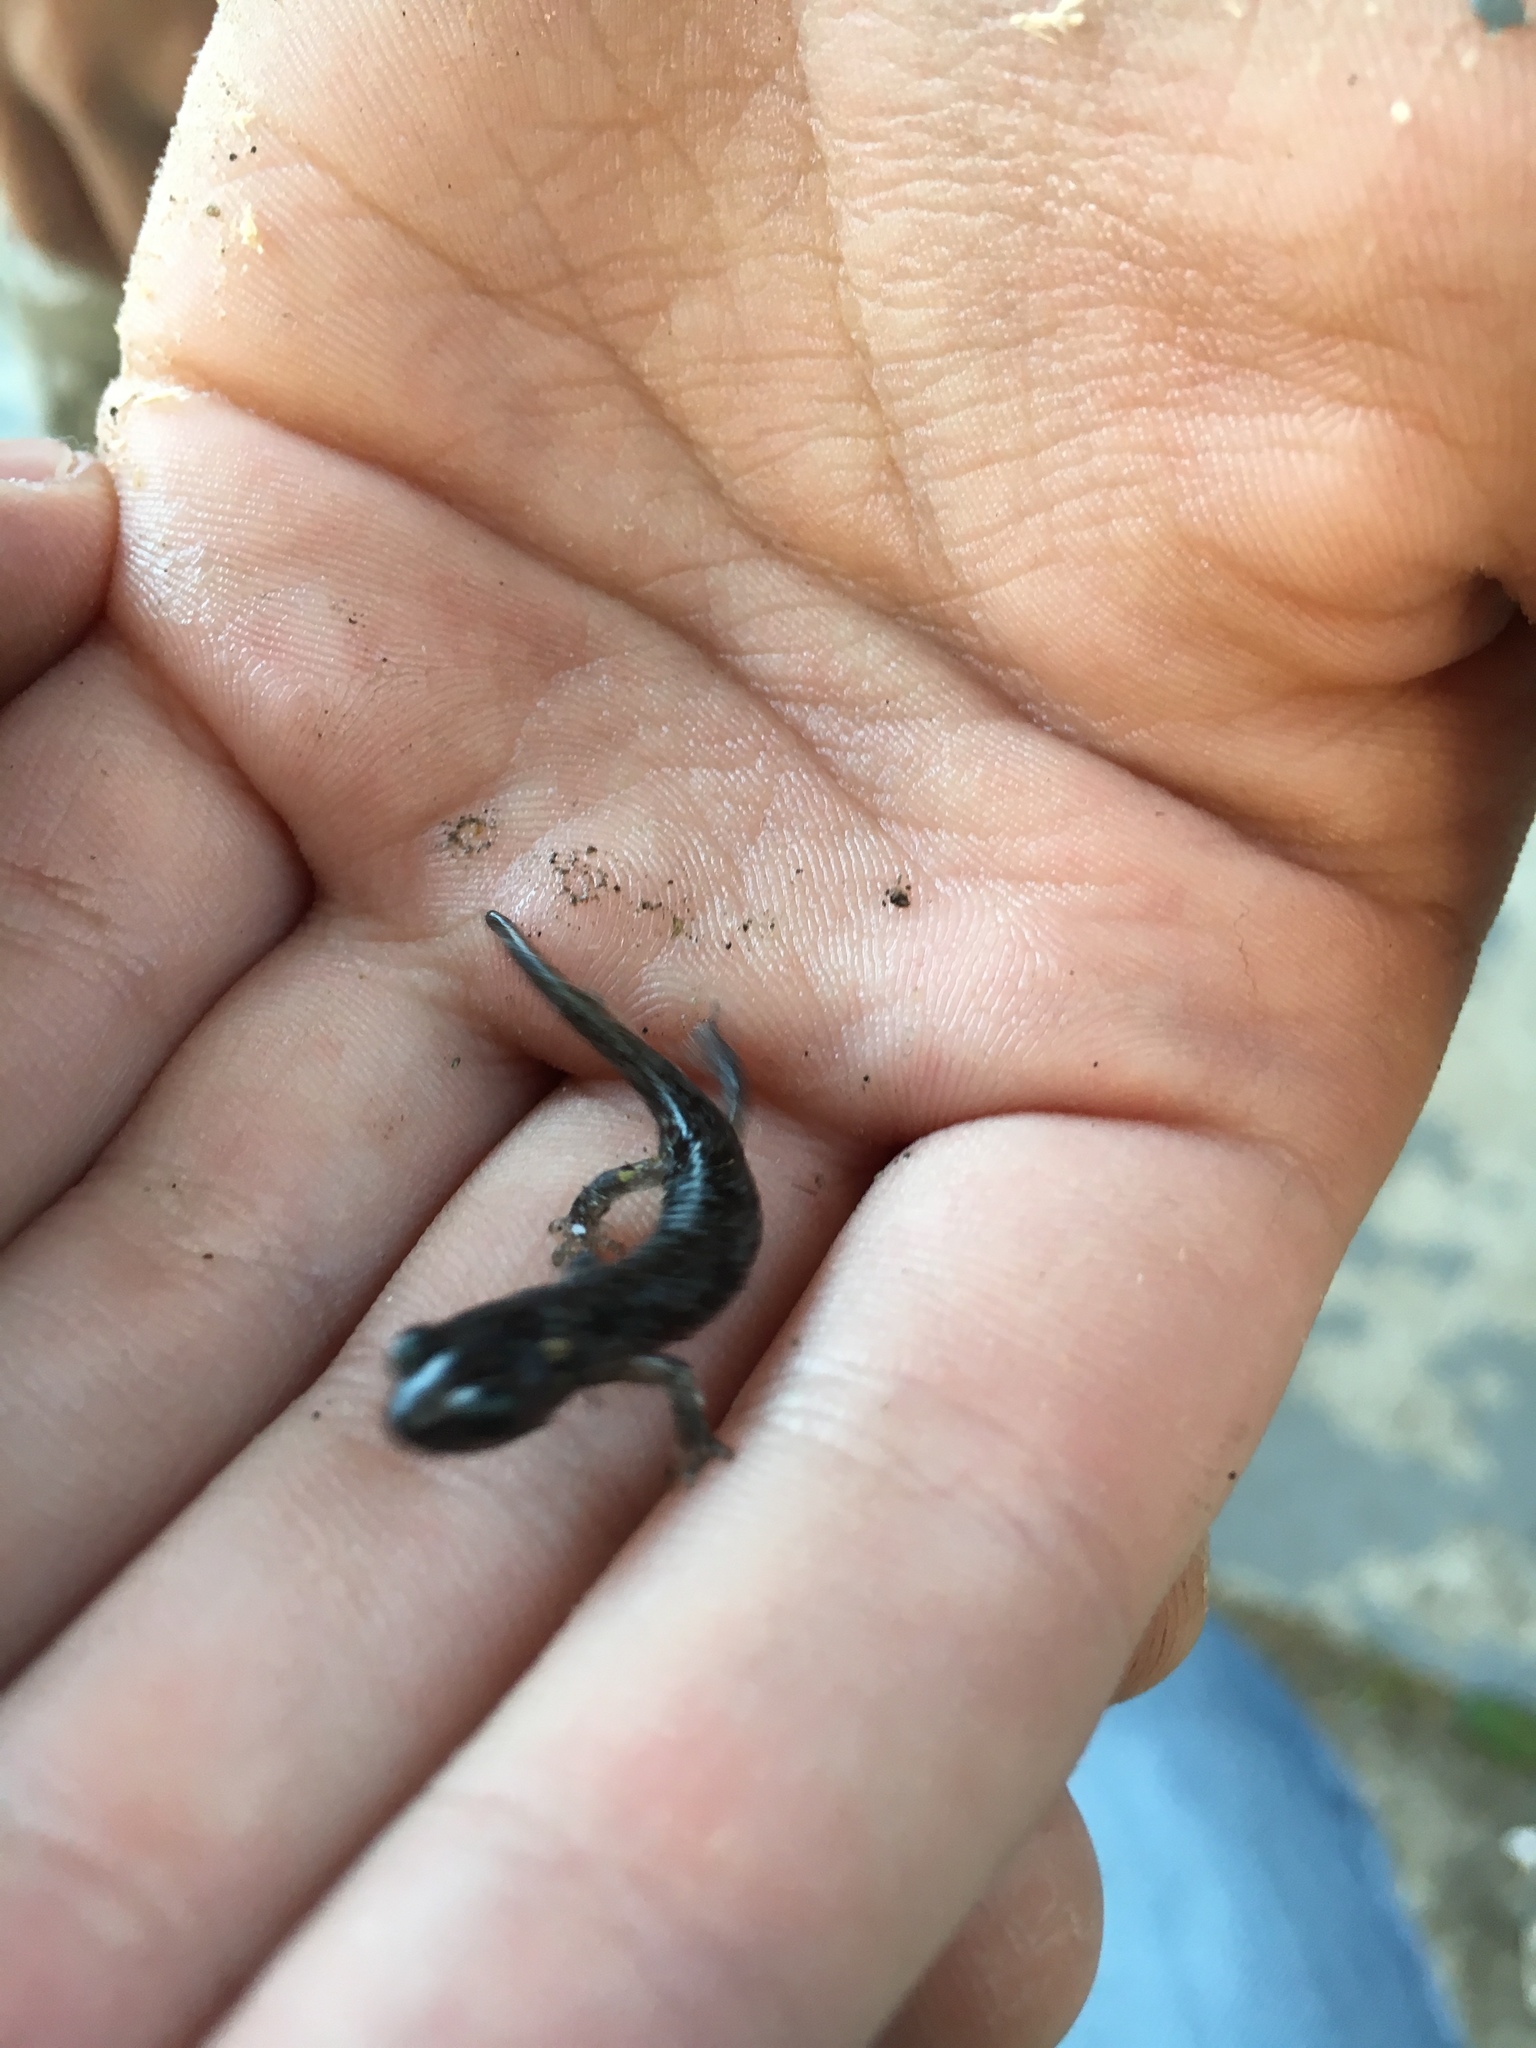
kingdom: Animalia
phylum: Chordata
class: Amphibia
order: Caudata
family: Plethodontidae
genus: Aneides
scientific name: Aneides lugubris
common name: Arboreal salamander
